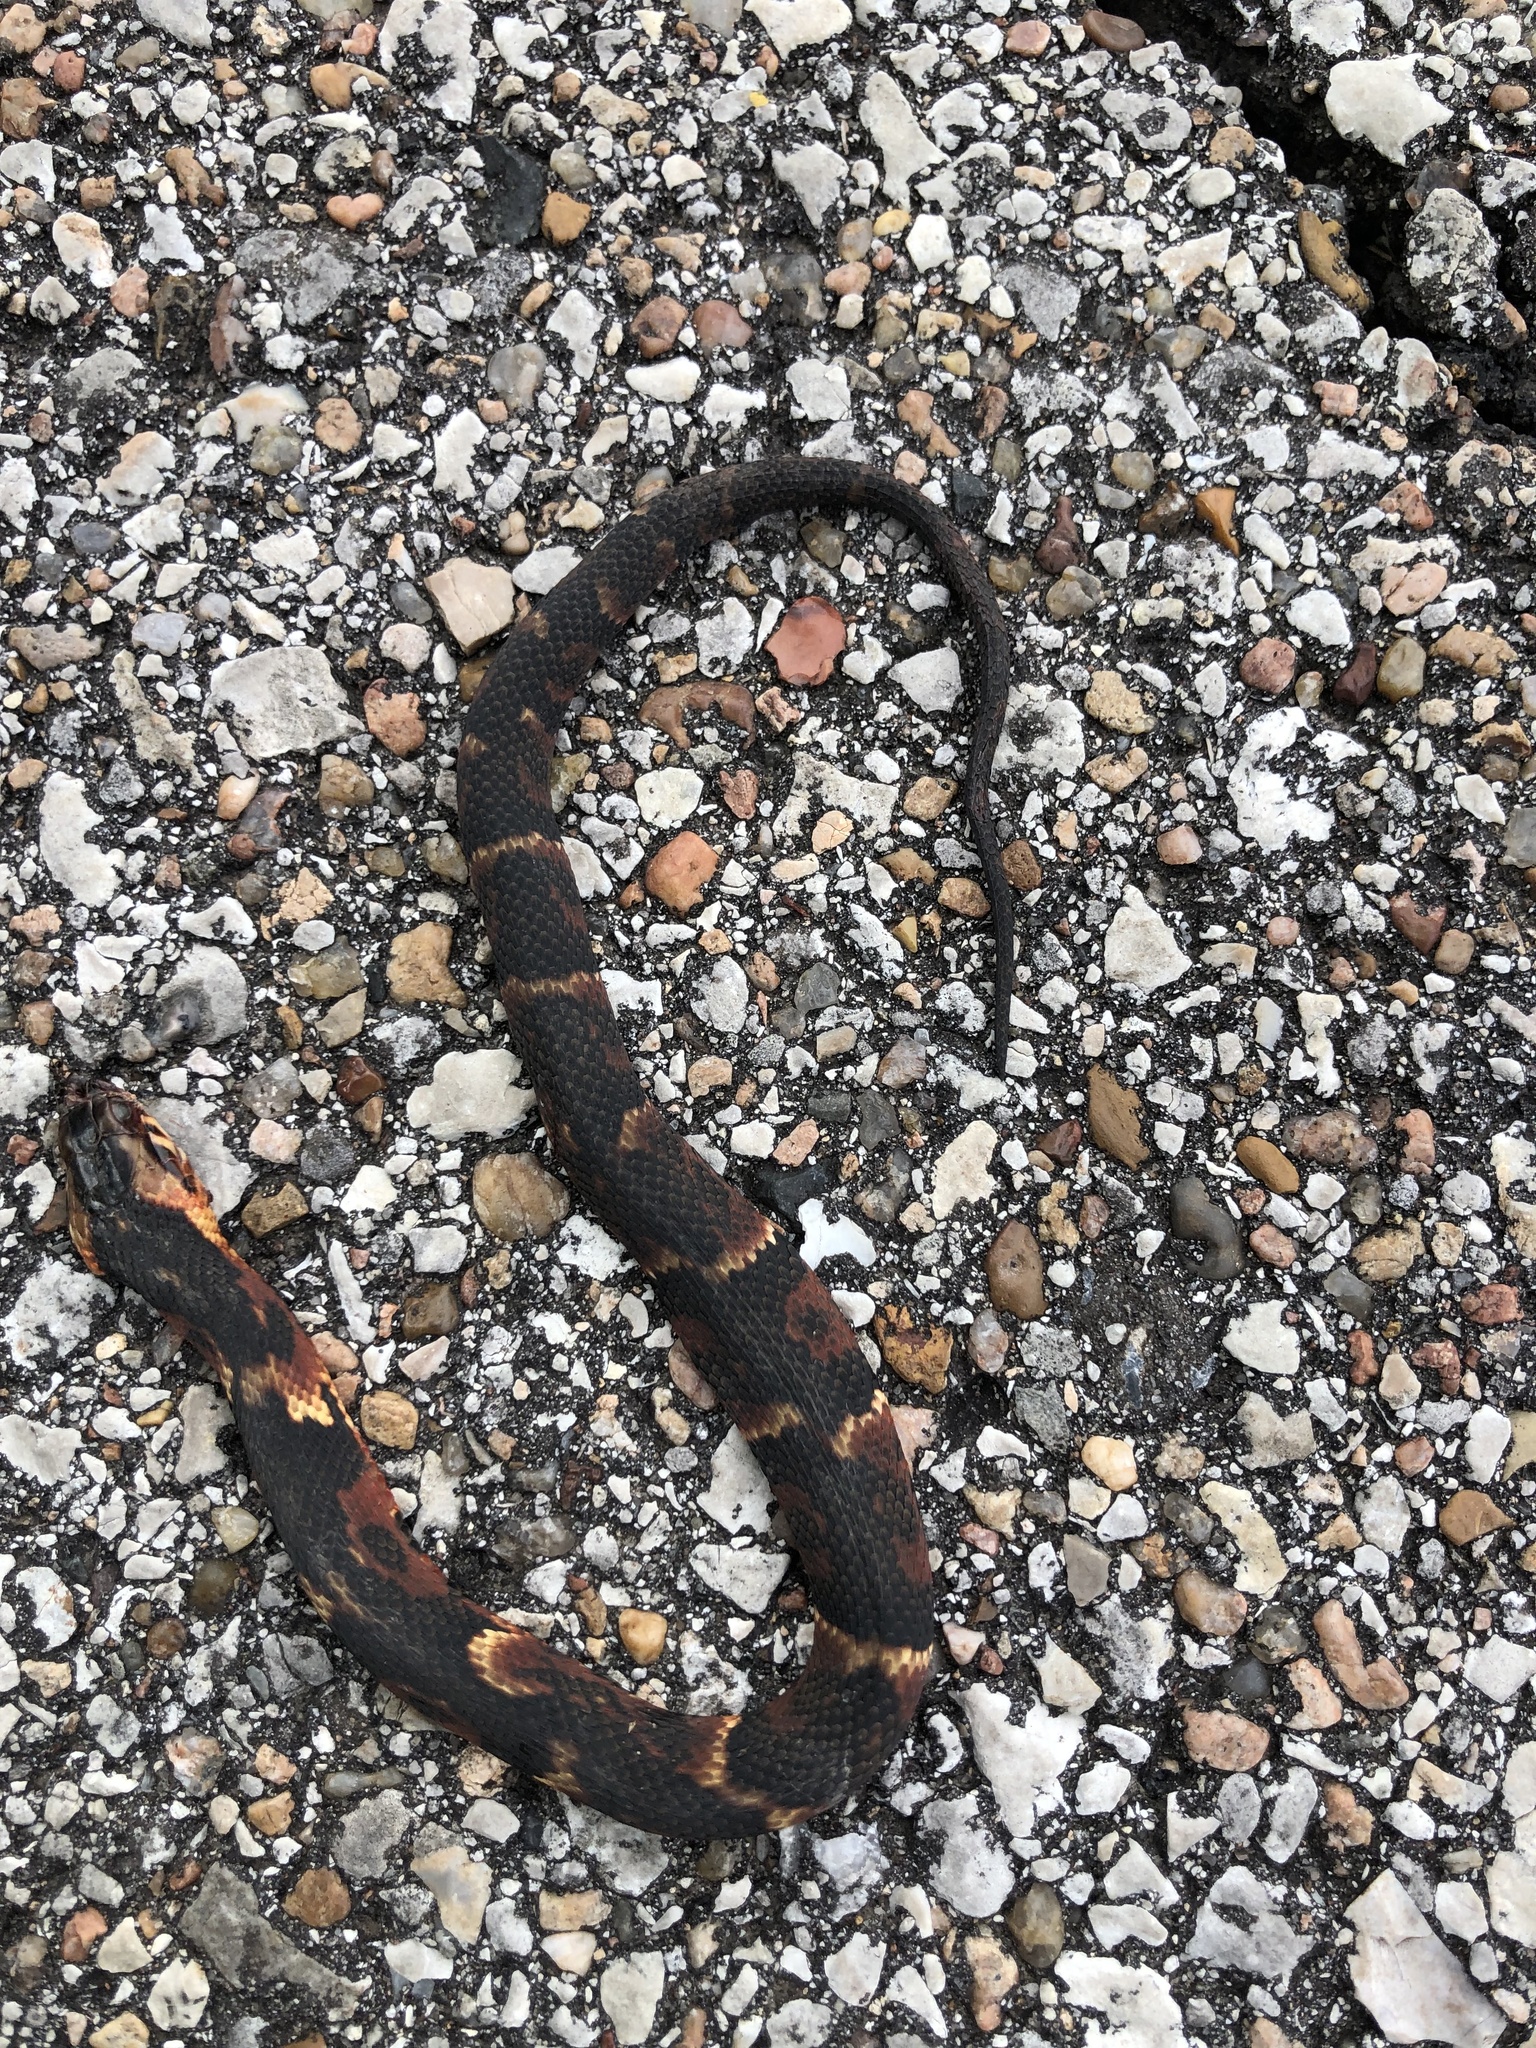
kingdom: Animalia
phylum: Chordata
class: Squamata
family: Colubridae
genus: Nerodia
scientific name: Nerodia fasciata
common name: Southern water snake
